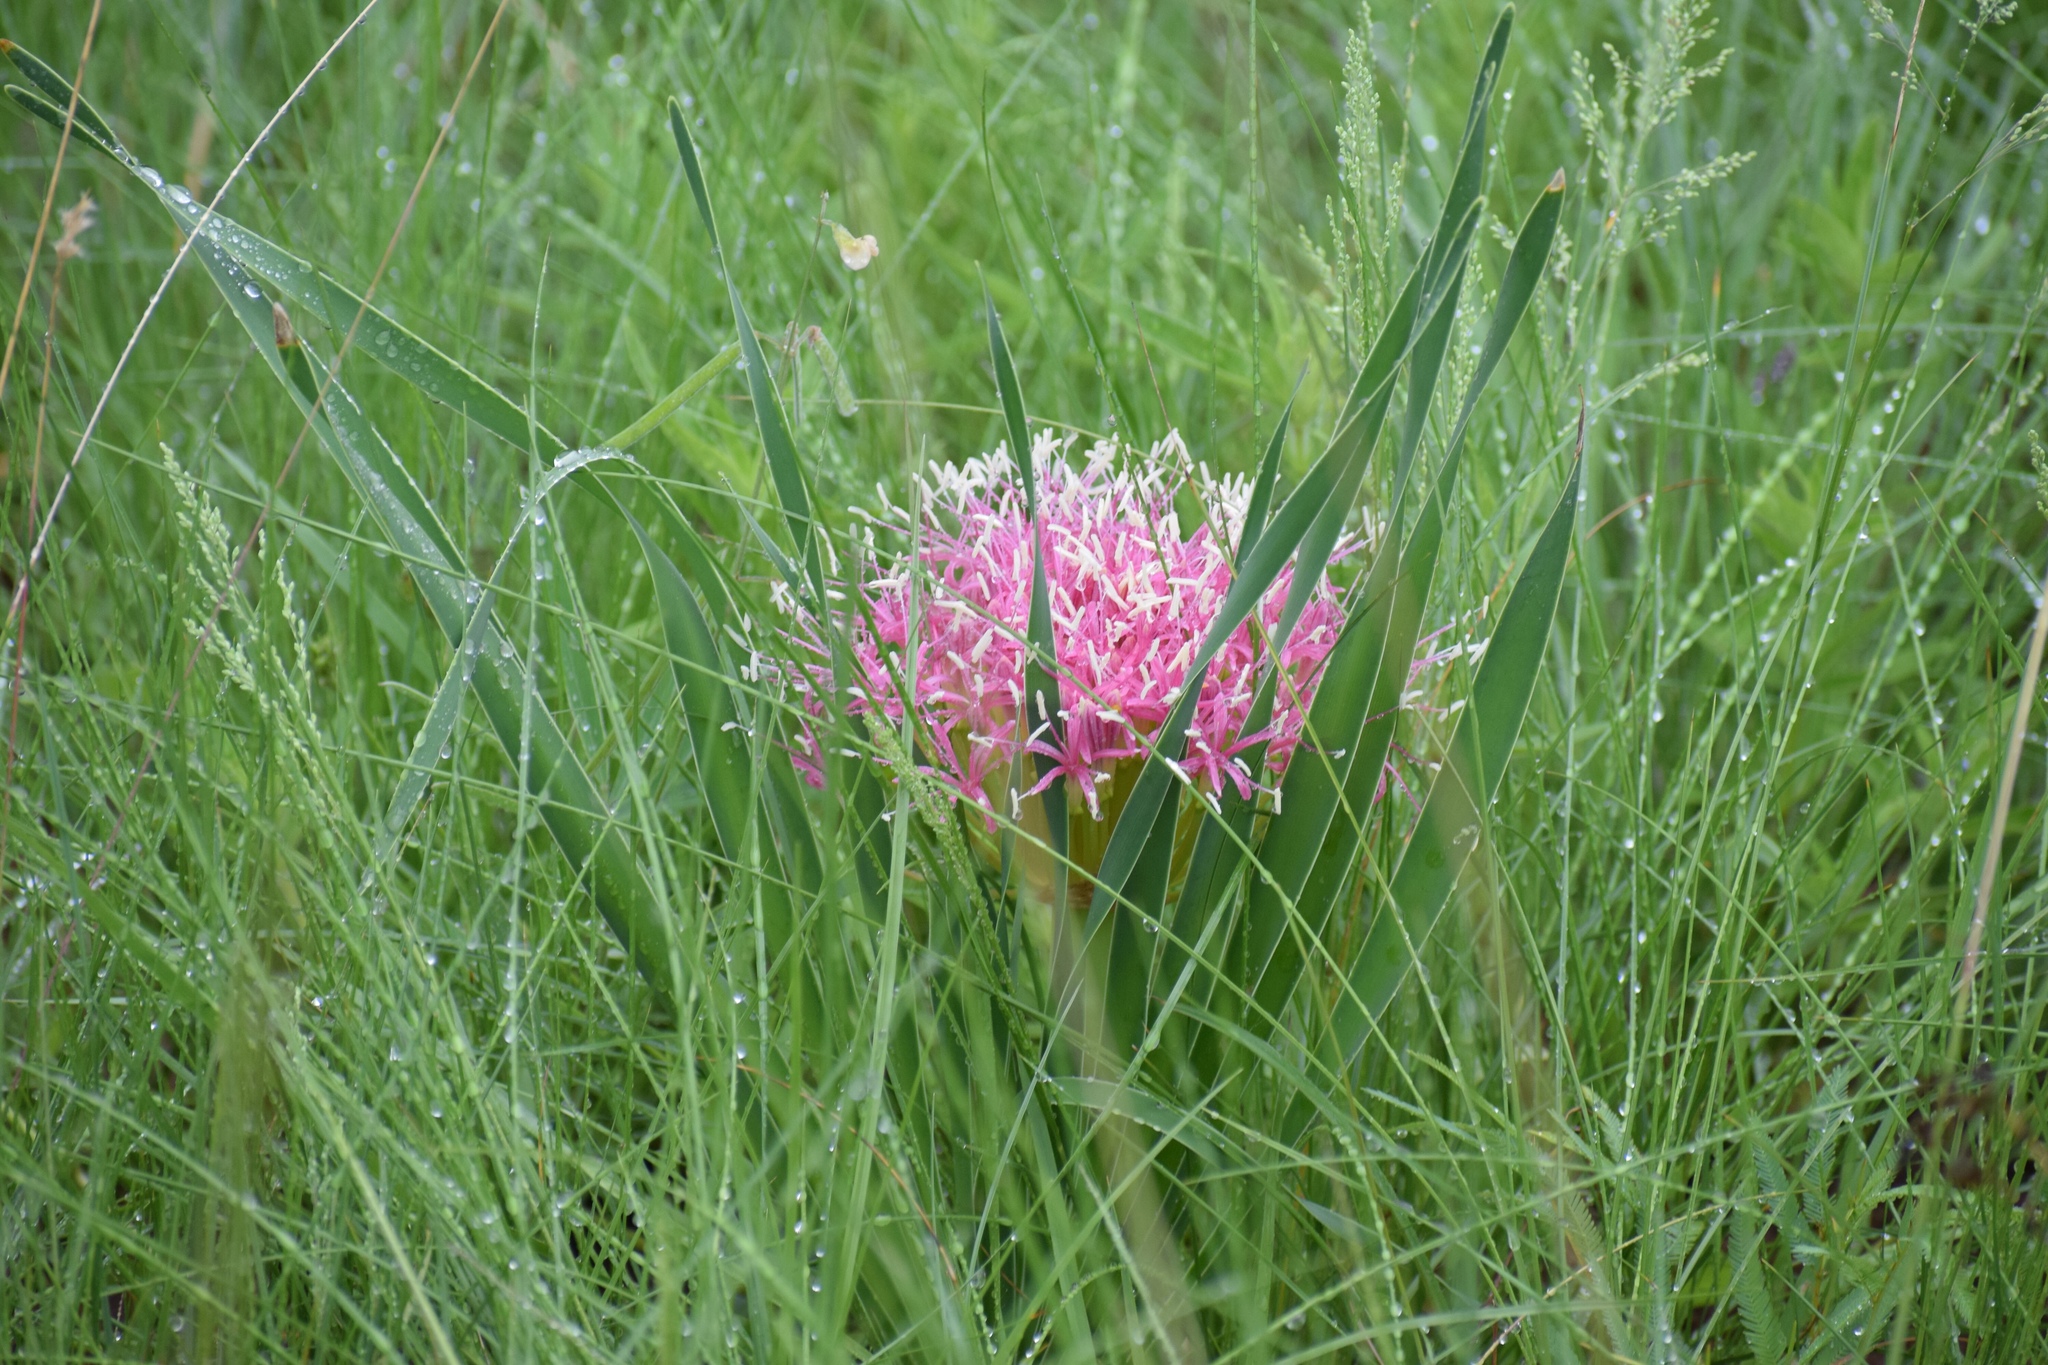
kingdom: Plantae
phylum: Tracheophyta
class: Liliopsida
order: Asparagales
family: Amaryllidaceae
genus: Boophone
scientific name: Boophone disticha
